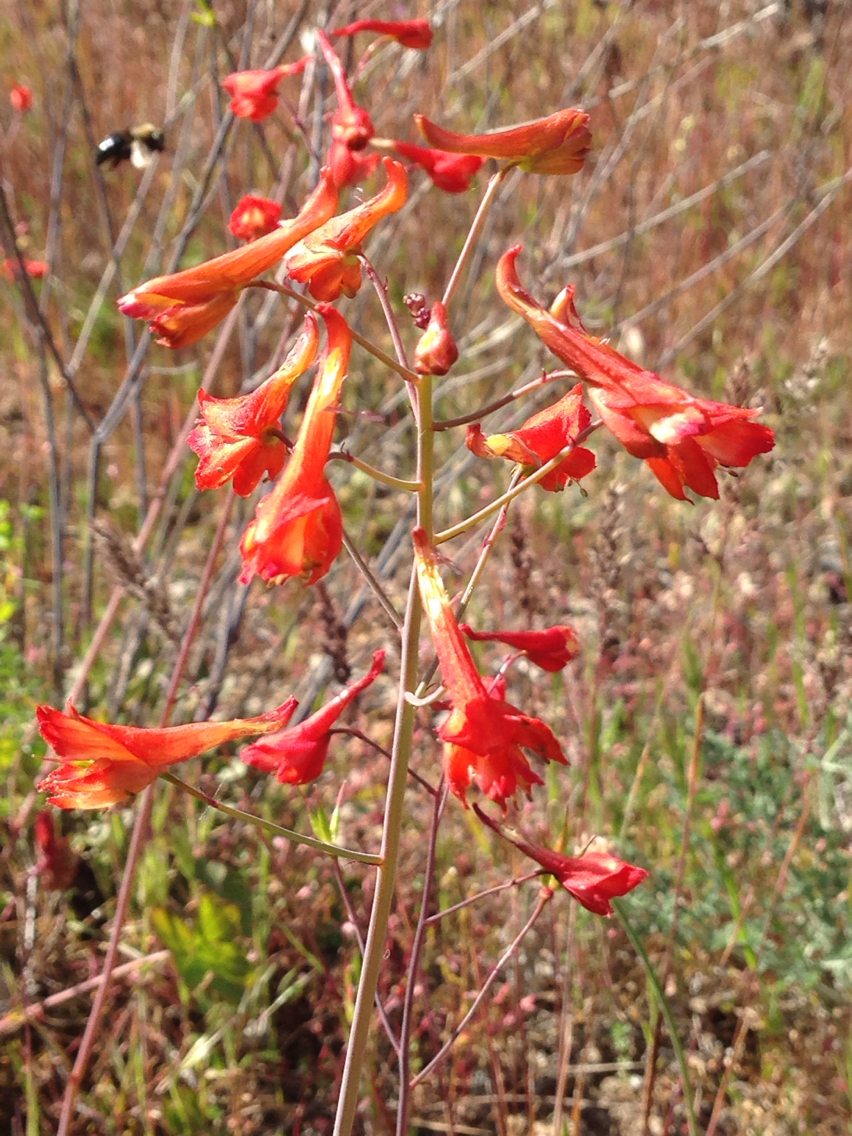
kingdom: Plantae
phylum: Tracheophyta
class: Magnoliopsida
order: Ranunculales
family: Ranunculaceae
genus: Delphinium
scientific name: Delphinium nudicaule
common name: Red larkspur
